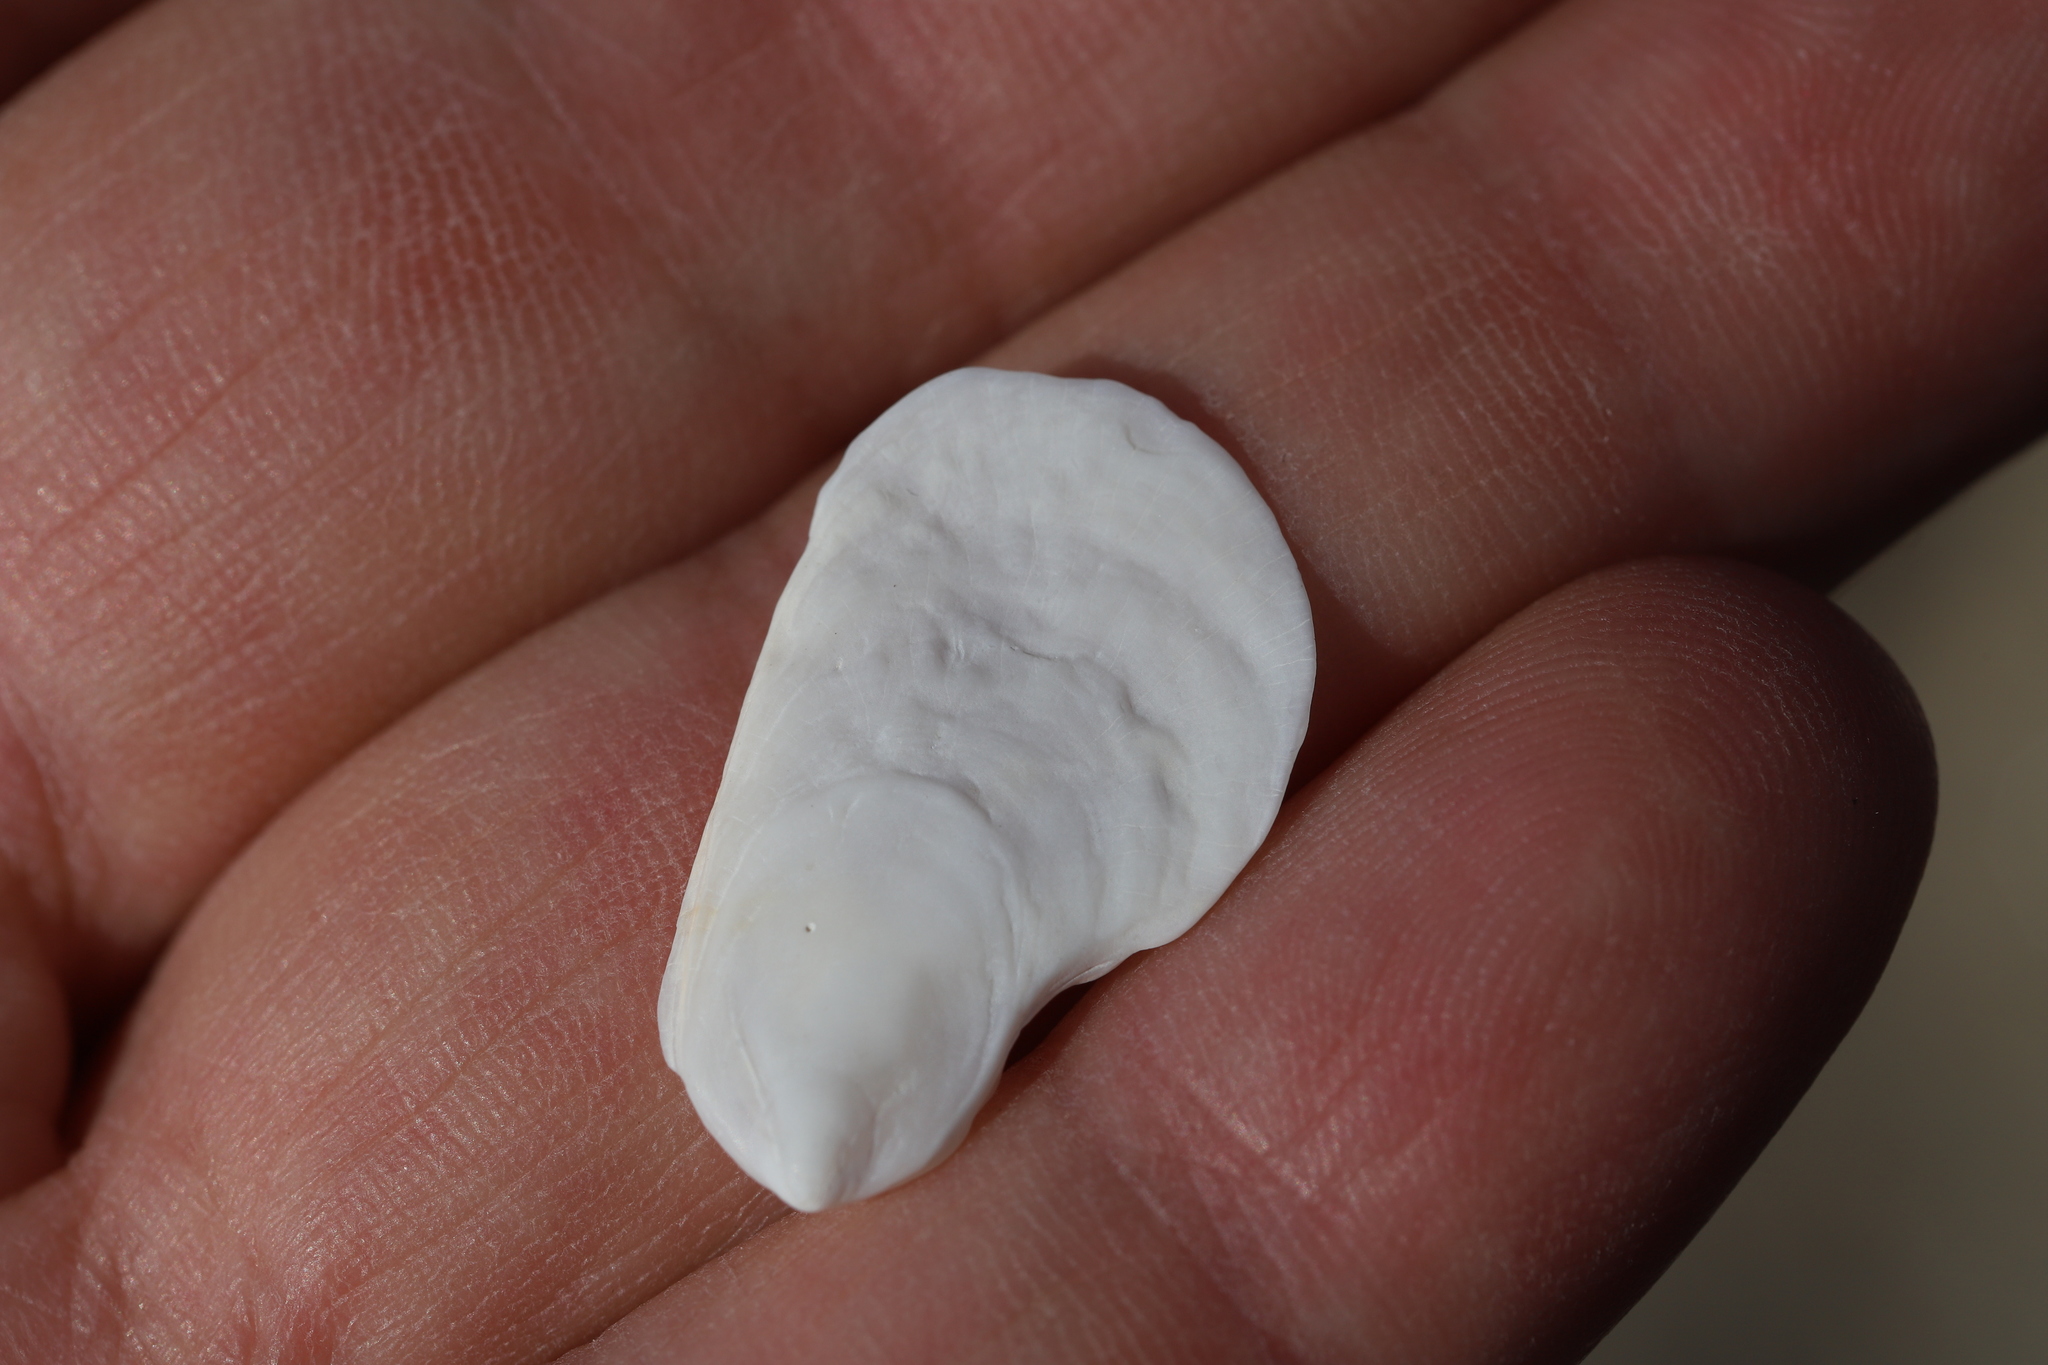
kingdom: Animalia
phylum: Mollusca
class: Gastropoda
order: Littorinimorpha
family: Calyptraeidae
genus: Crepidula
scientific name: Crepidula plana
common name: Eastern white slippersnail
